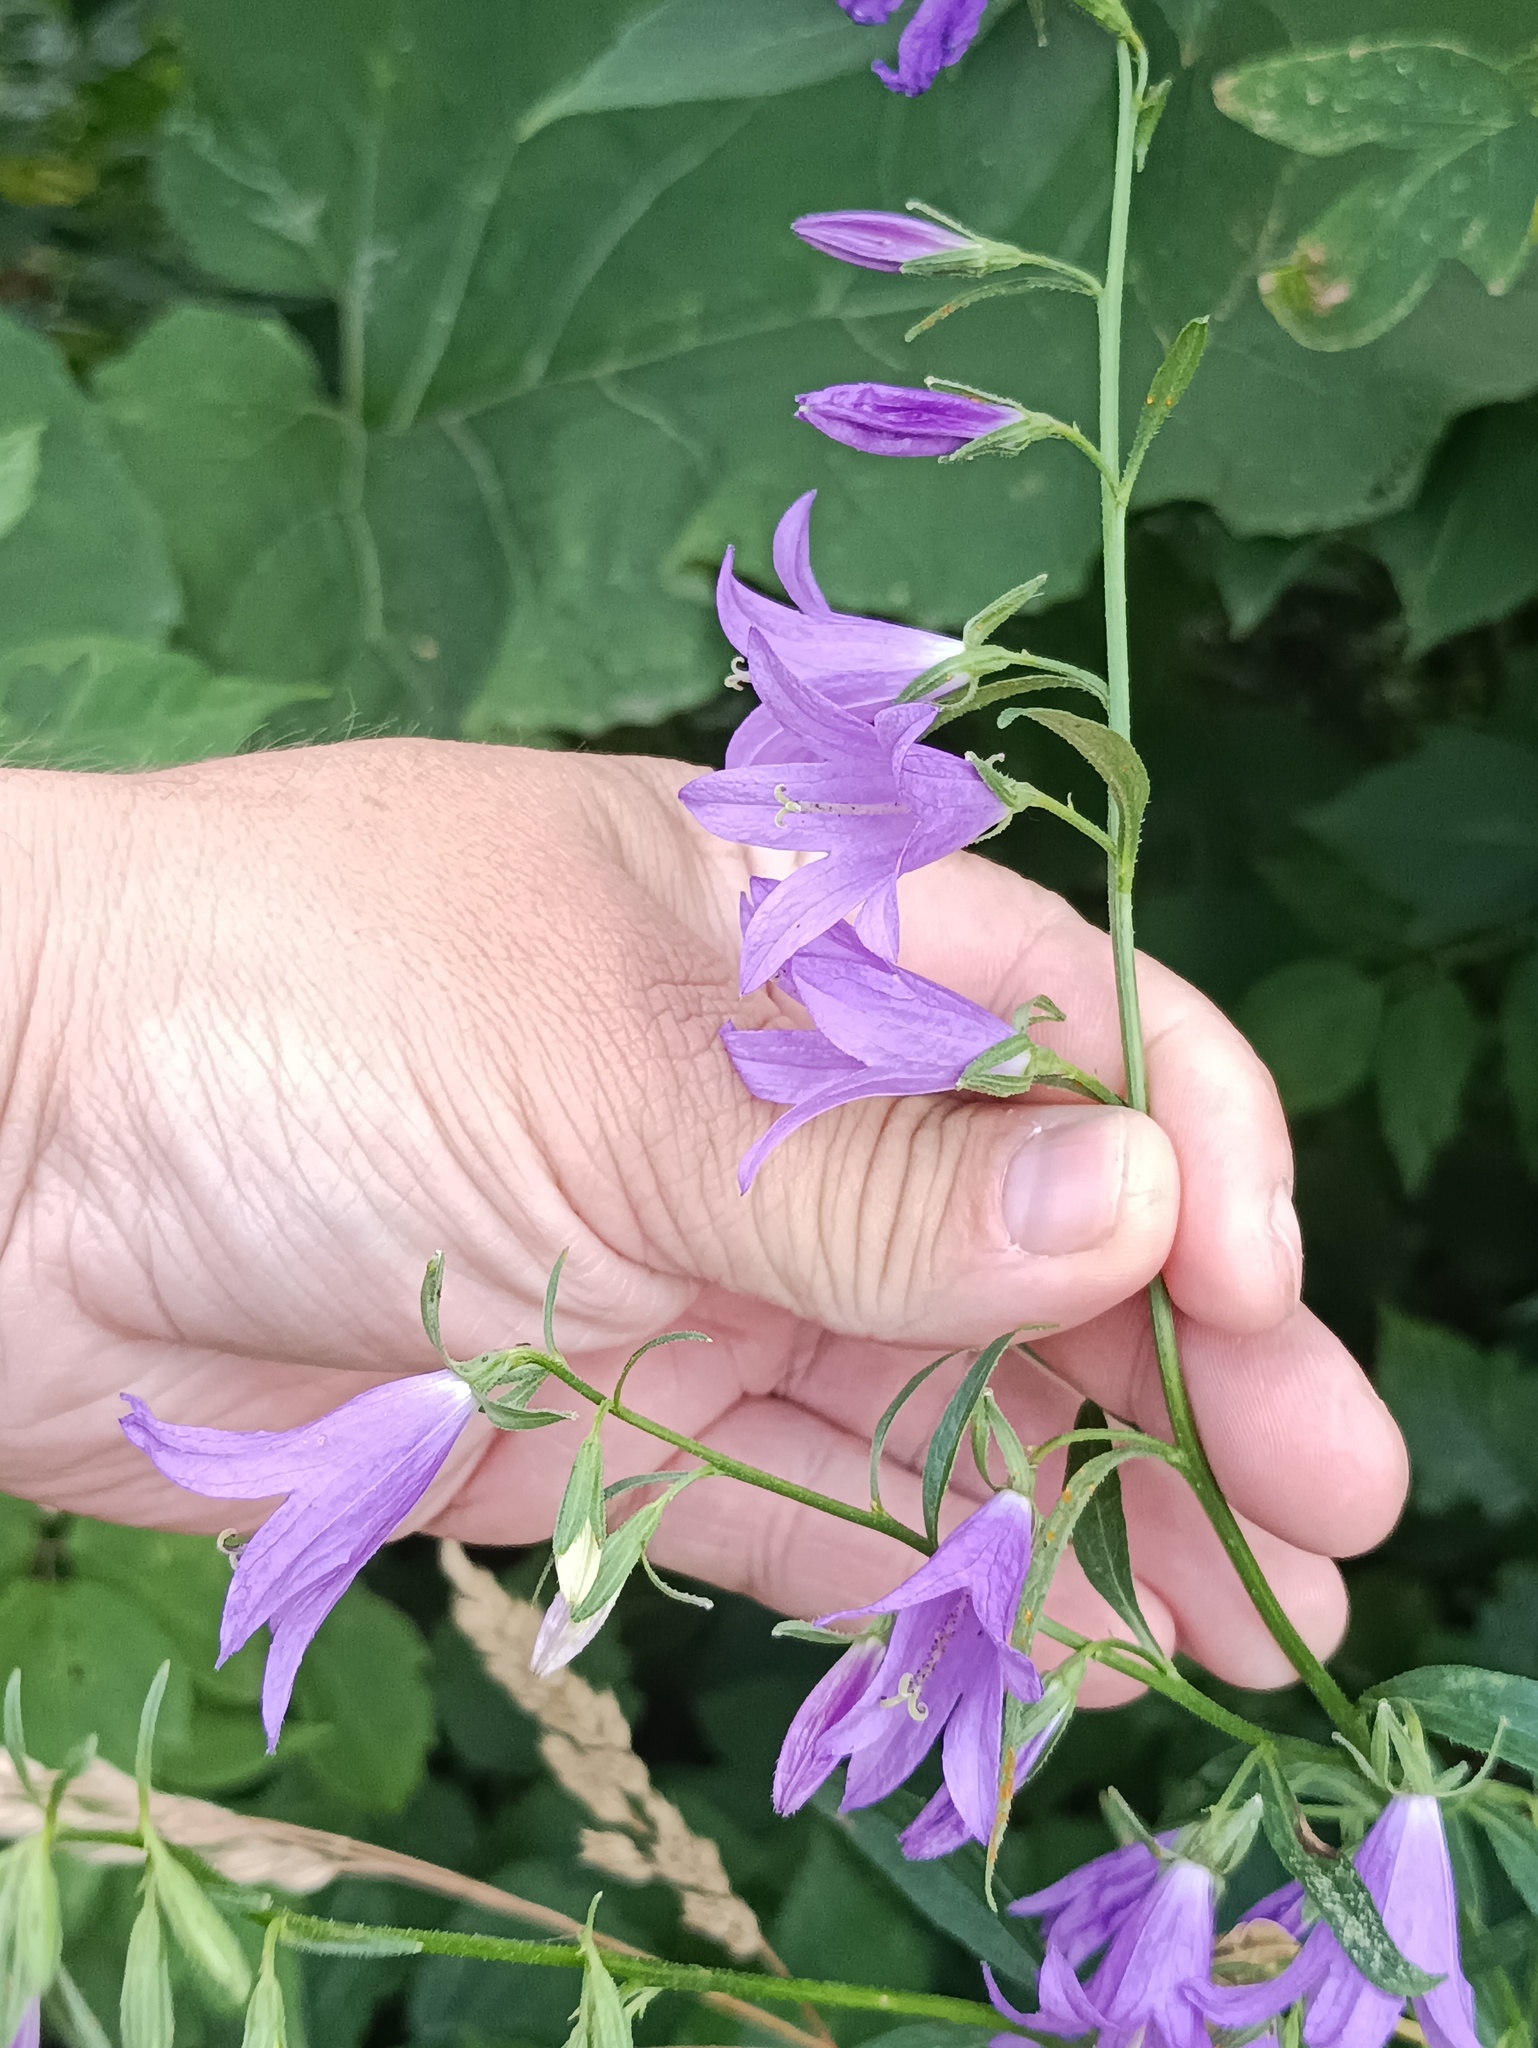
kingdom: Plantae
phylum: Tracheophyta
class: Magnoliopsida
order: Asterales
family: Campanulaceae
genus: Campanula
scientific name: Campanula rapunculoides
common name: Creeping bellflower
